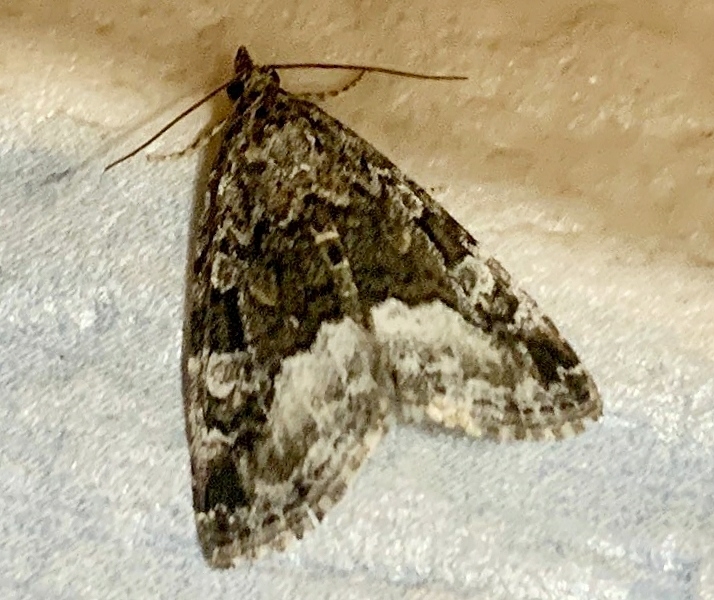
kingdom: Animalia
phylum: Arthropoda
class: Insecta
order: Lepidoptera
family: Noctuidae
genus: Deltote
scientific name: Deltote pygarga
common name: Marbled white spot
